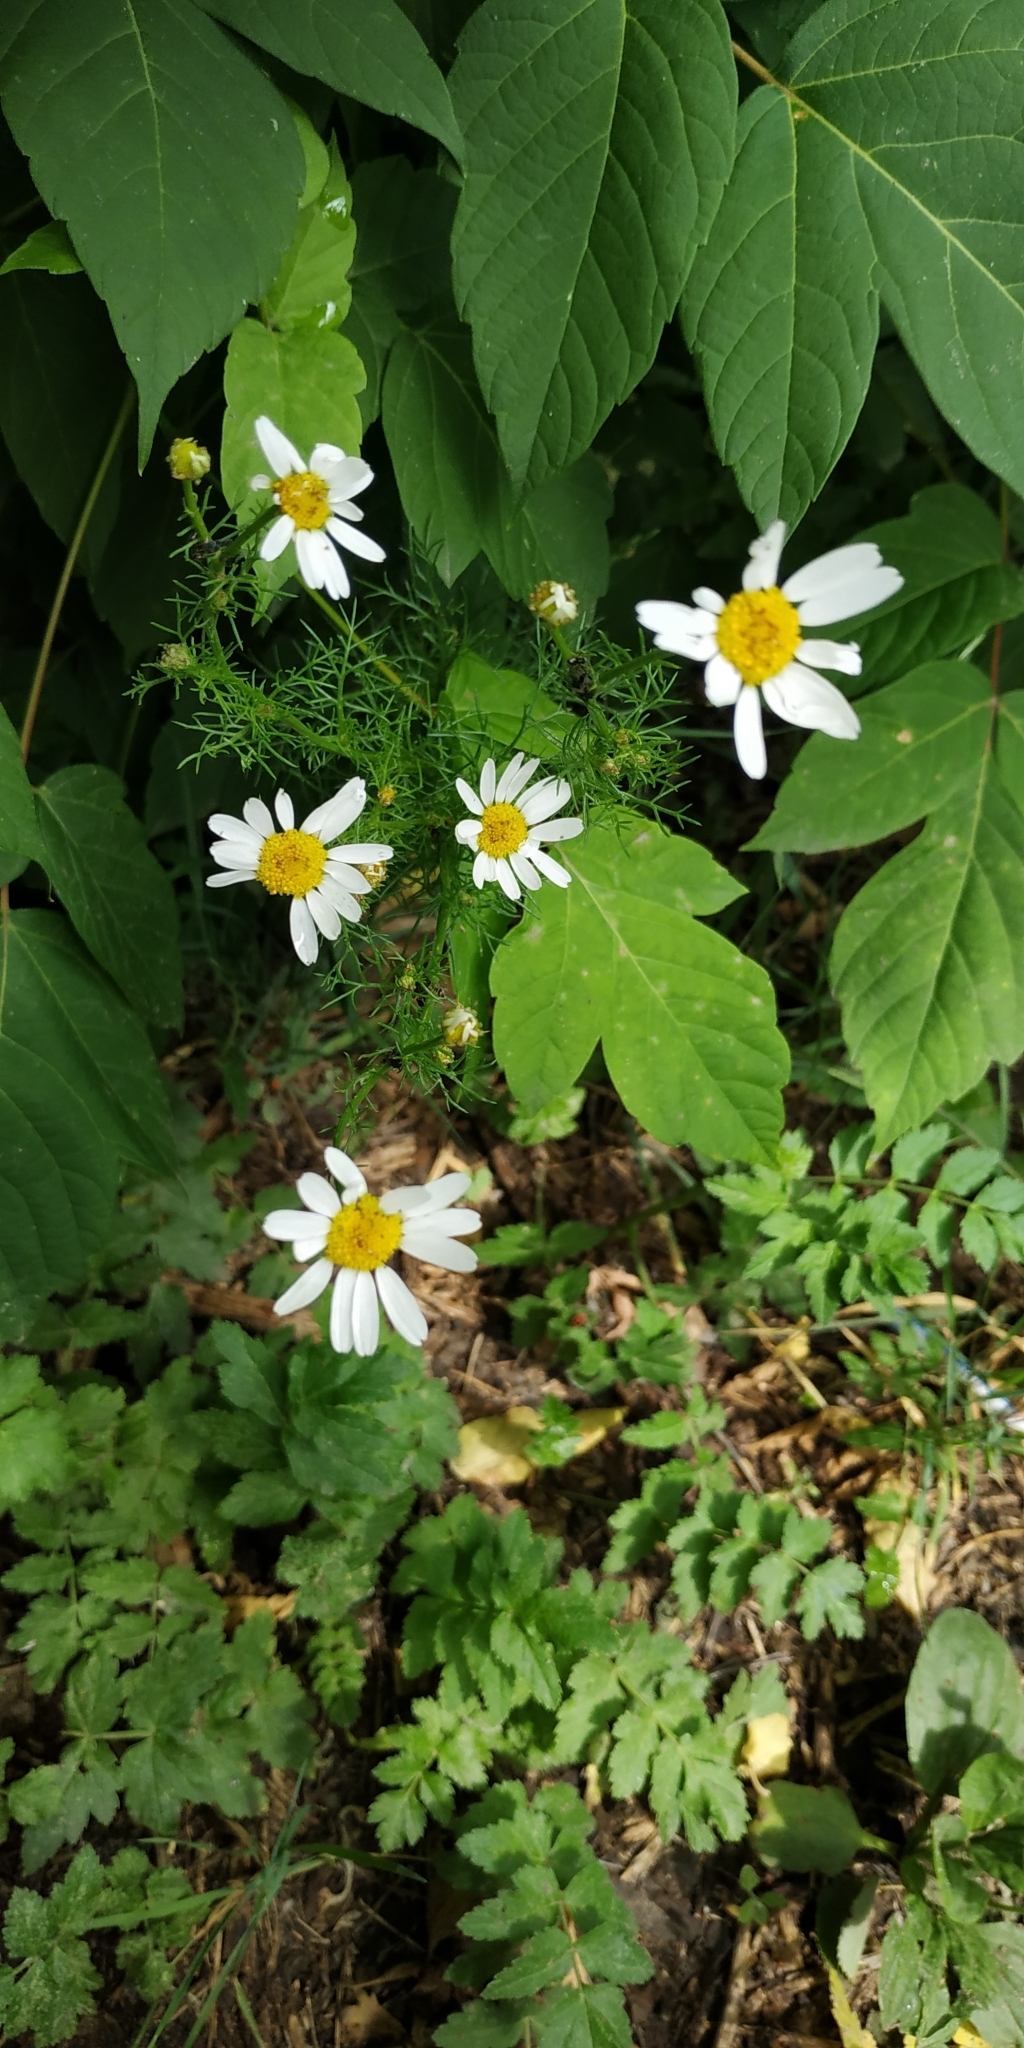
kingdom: Plantae
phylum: Tracheophyta
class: Magnoliopsida
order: Asterales
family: Asteraceae
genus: Tripleurospermum
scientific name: Tripleurospermum inodorum
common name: Scentless mayweed
